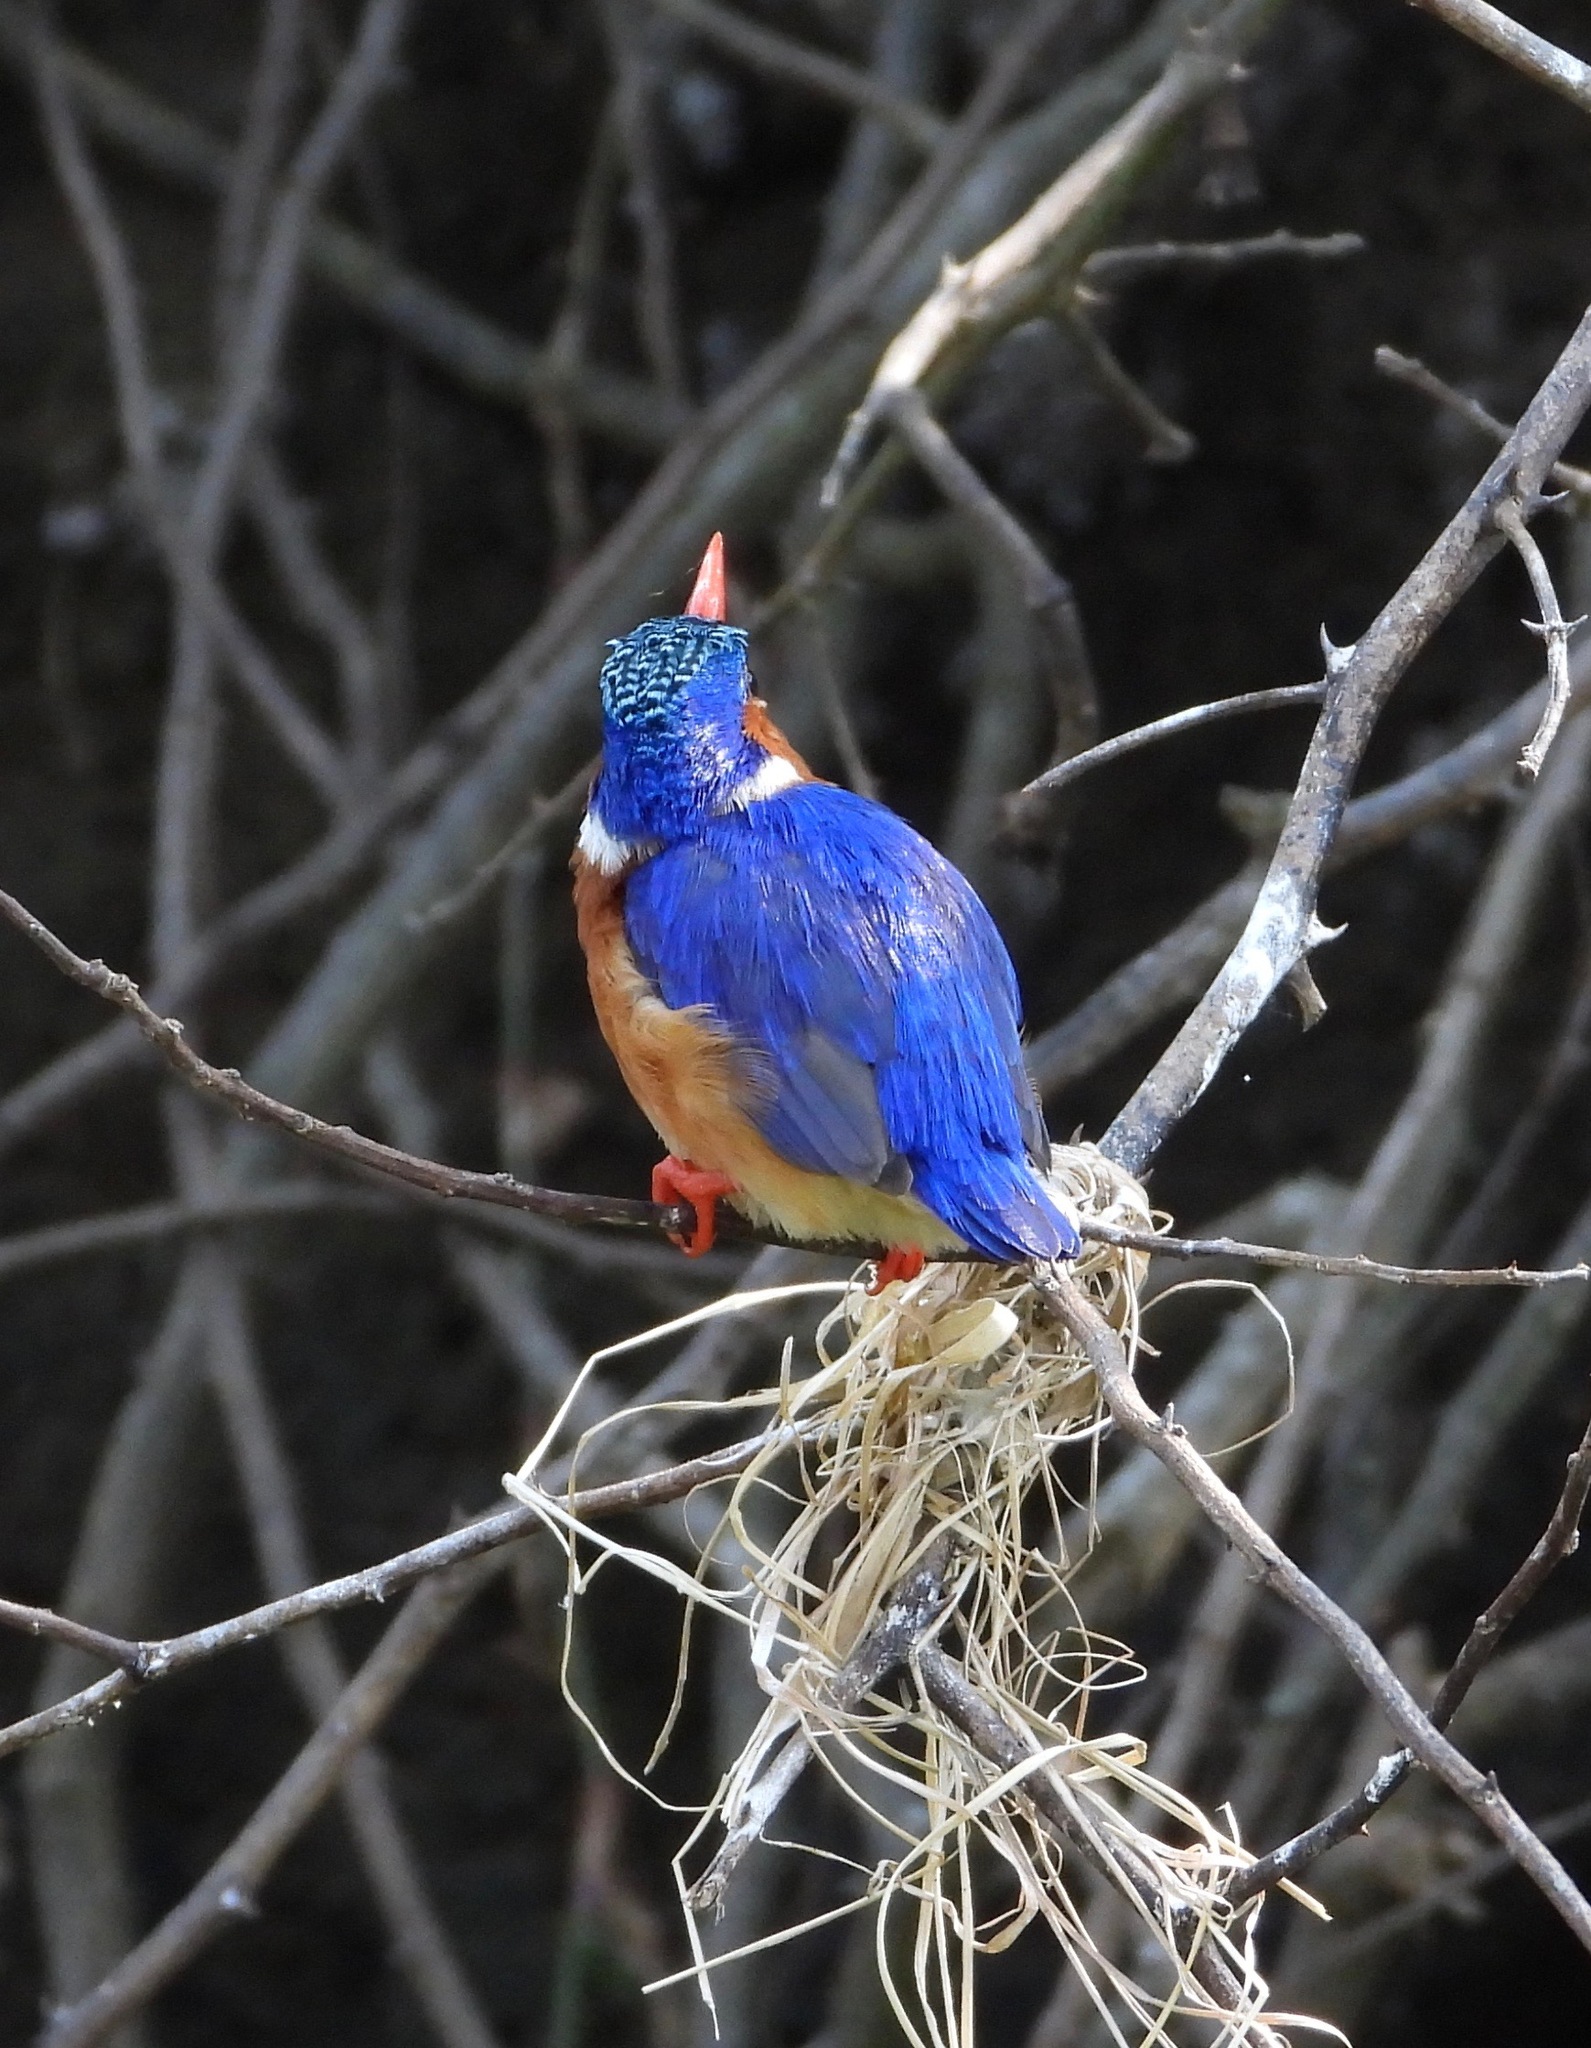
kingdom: Animalia
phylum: Chordata
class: Aves
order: Coraciiformes
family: Alcedinidae
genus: Corythornis
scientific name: Corythornis cristatus
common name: Malachite kingfisher
